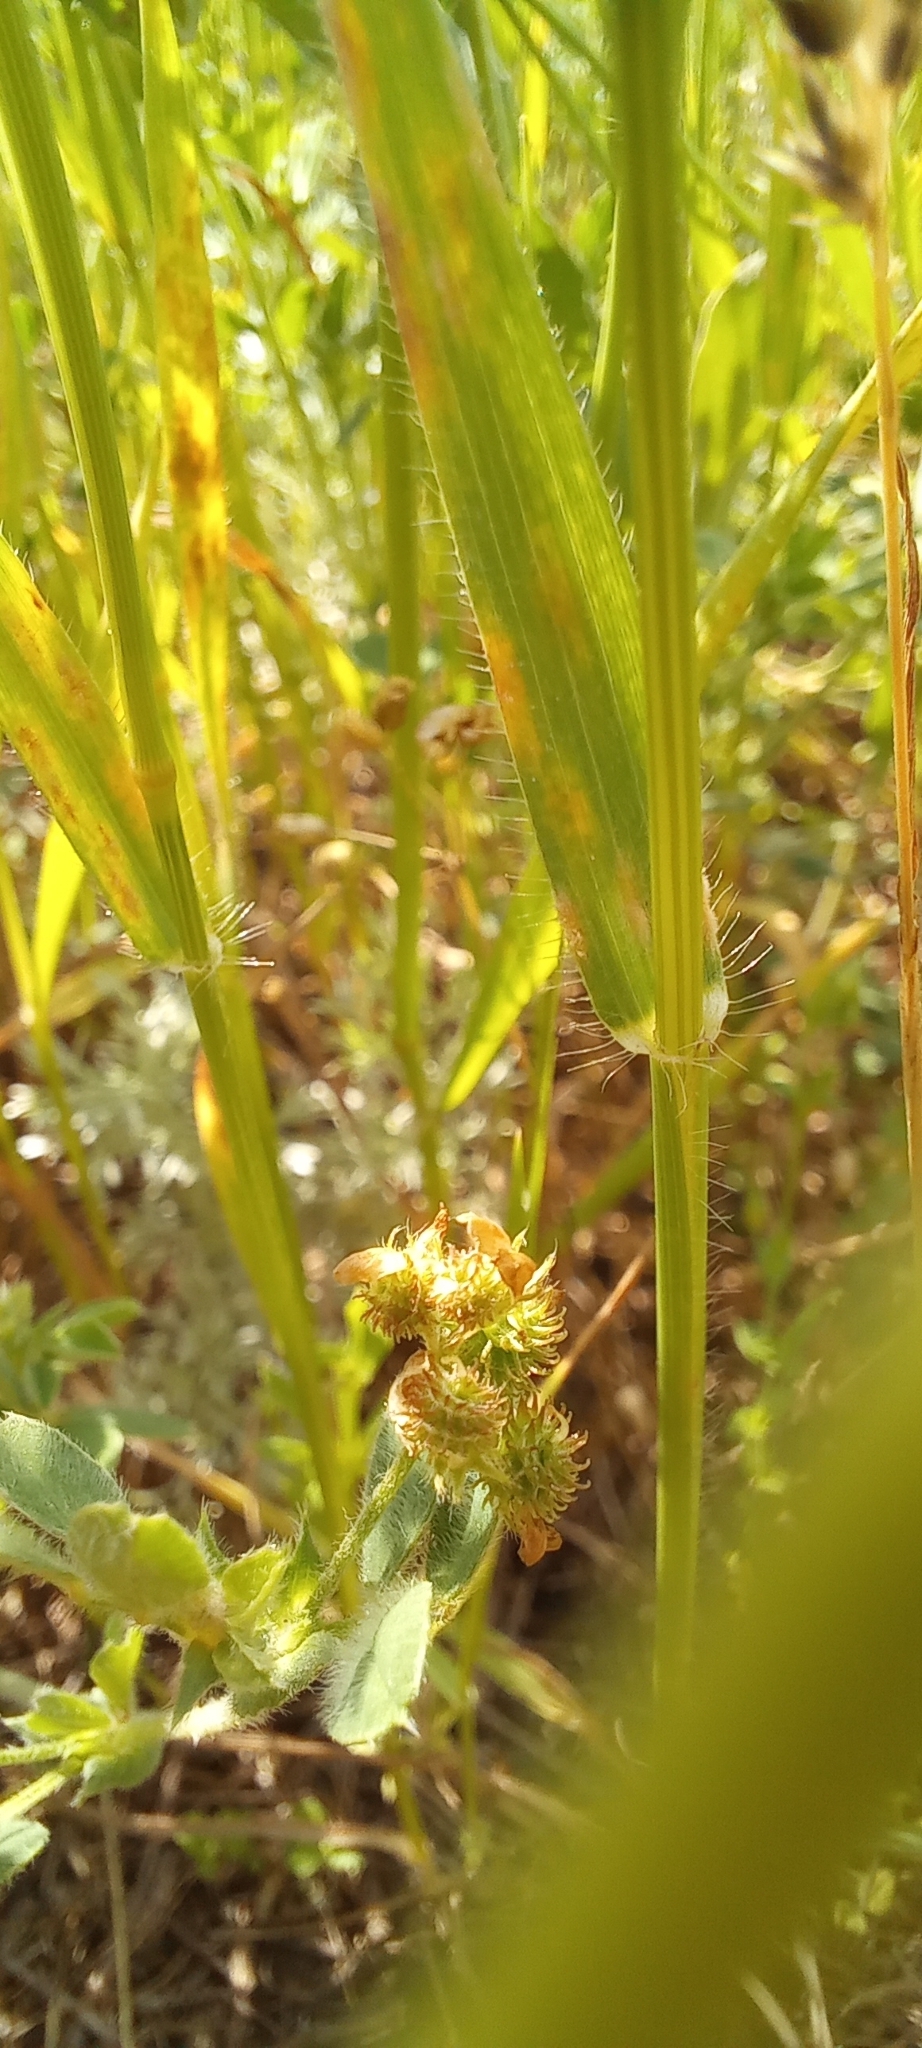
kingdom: Plantae
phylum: Tracheophyta
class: Liliopsida
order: Poales
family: Poaceae
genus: Aegilops
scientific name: Aegilops cylindrica
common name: Jointed goatgrass
